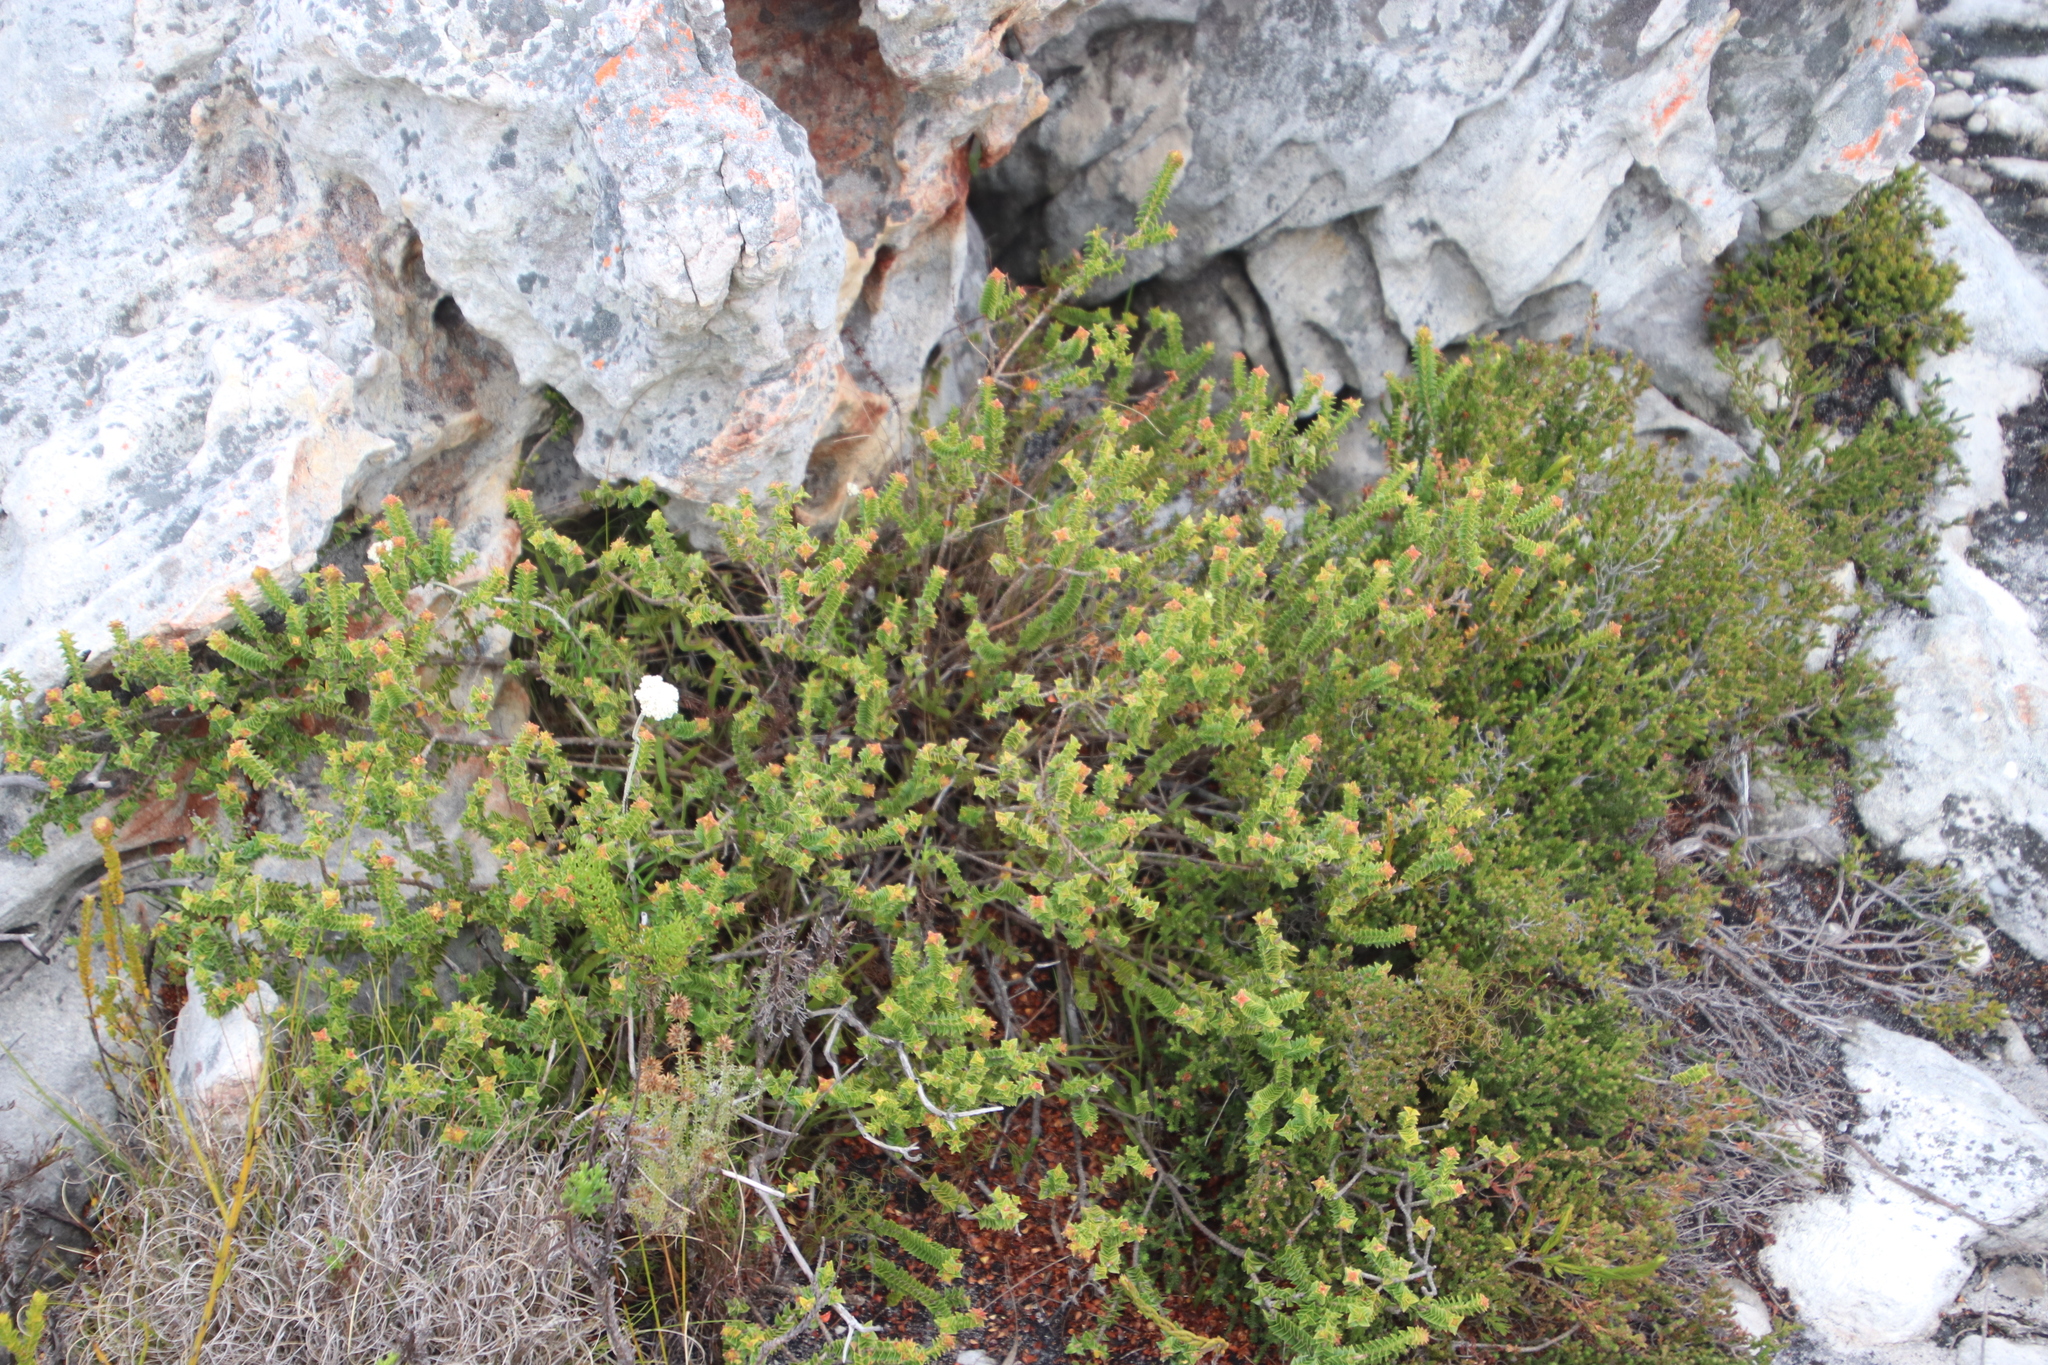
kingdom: Plantae
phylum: Tracheophyta
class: Magnoliopsida
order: Myrtales
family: Penaeaceae
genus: Penaea
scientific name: Penaea mucronata
